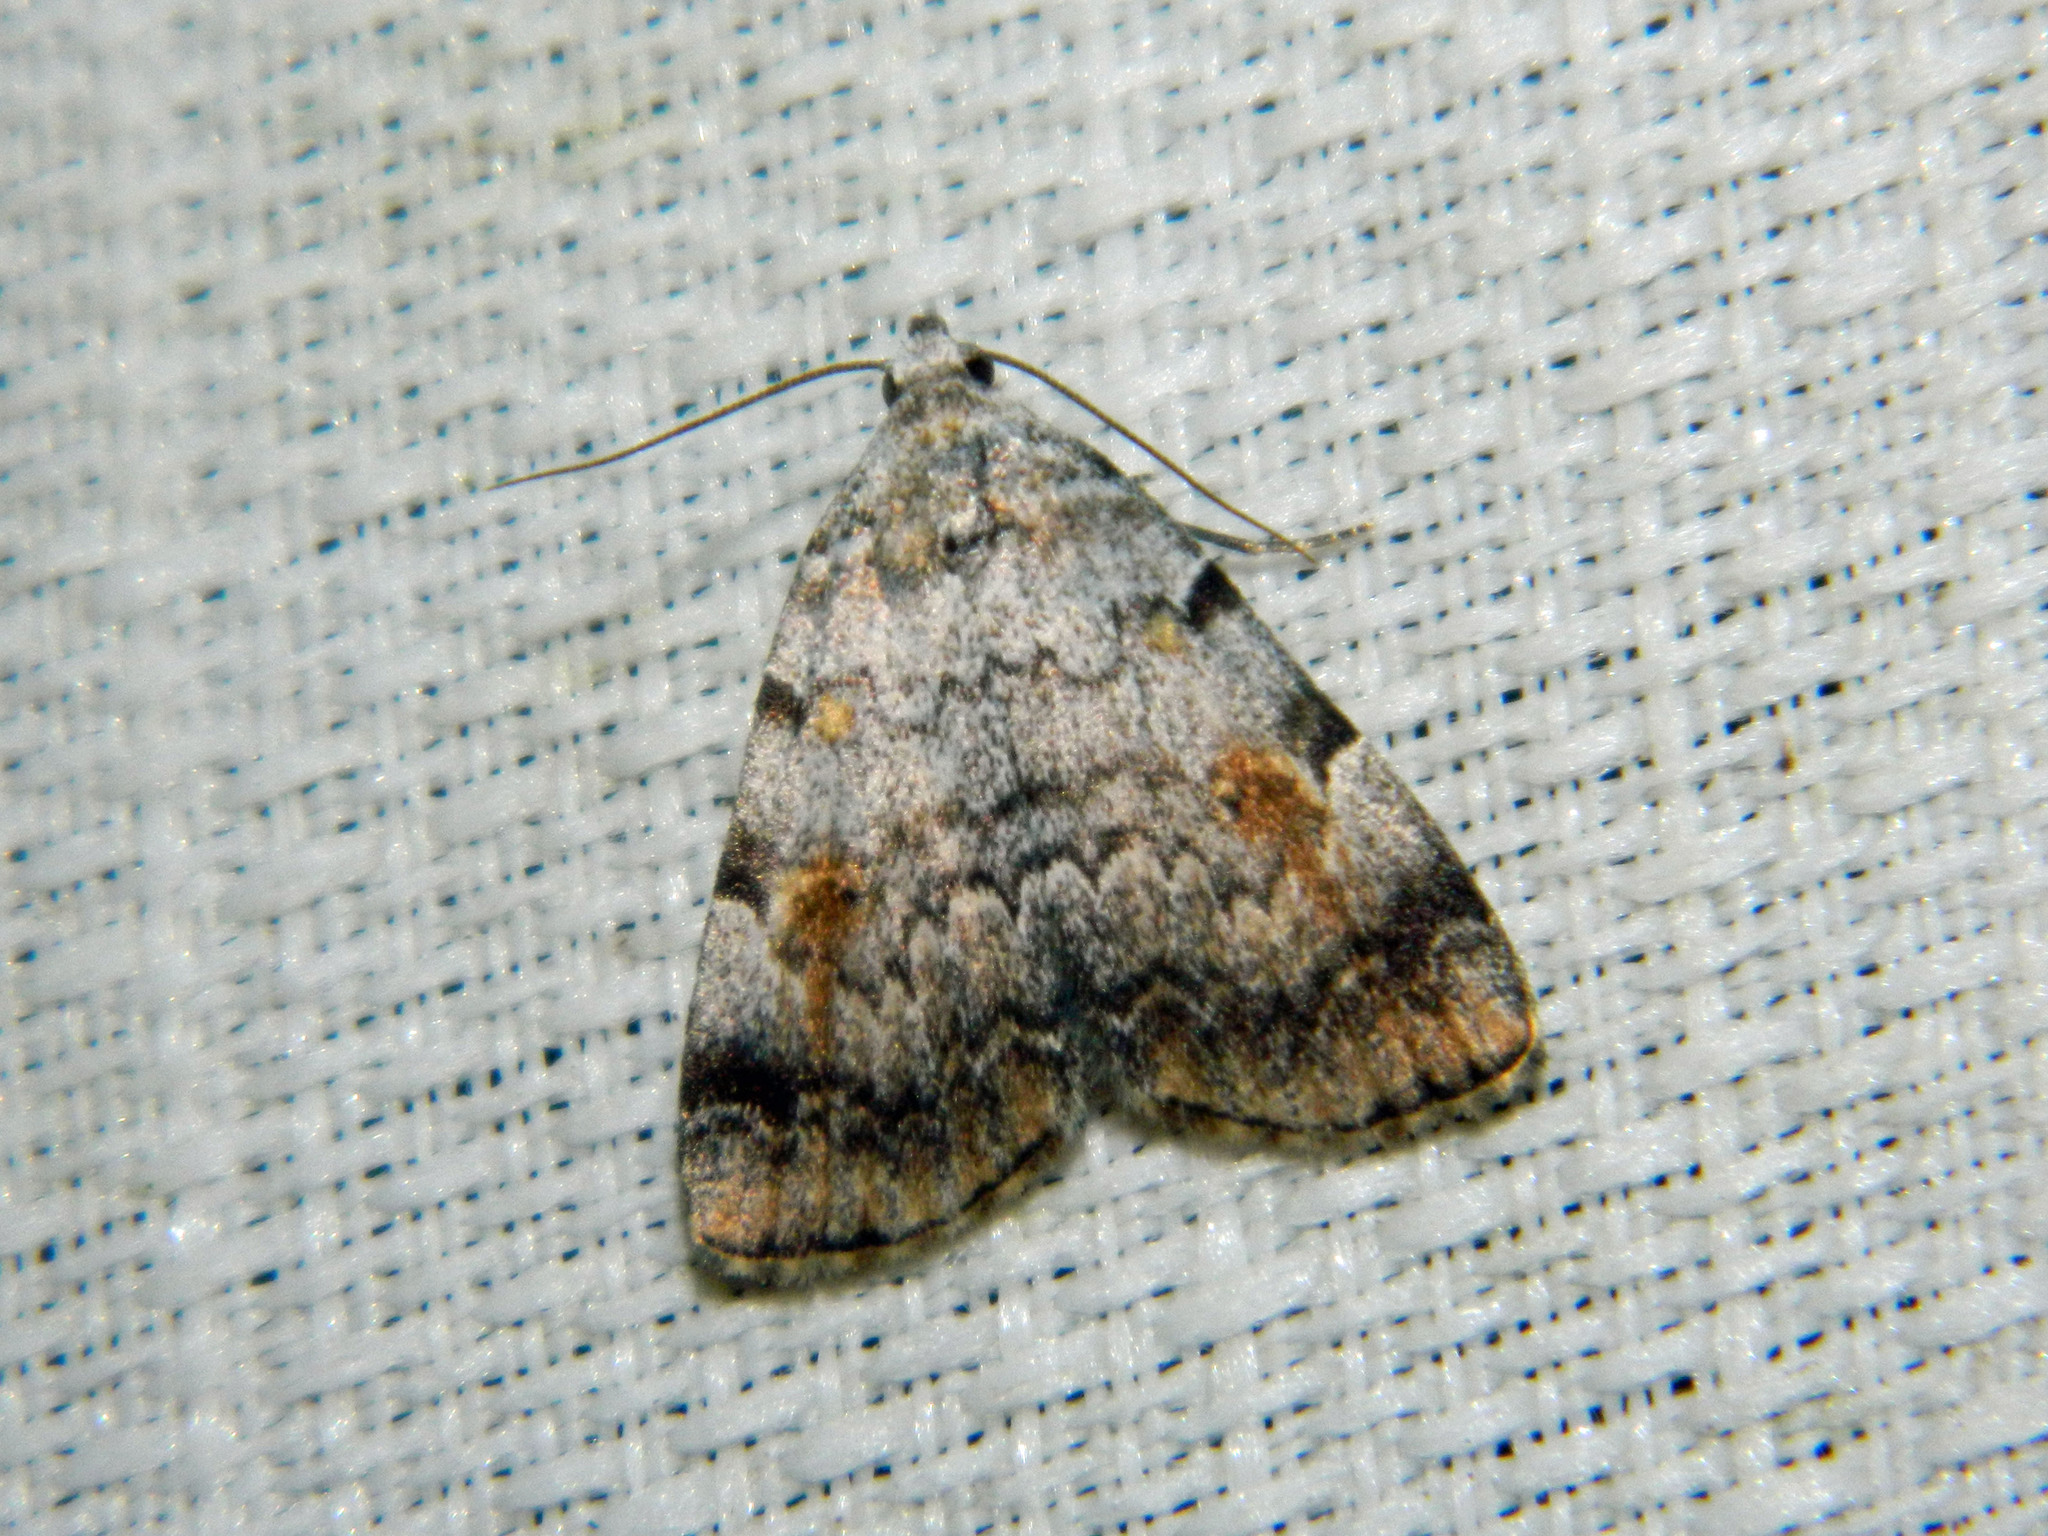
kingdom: Animalia
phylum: Arthropoda
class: Insecta
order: Lepidoptera
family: Erebidae
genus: Idia
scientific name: Idia americalis
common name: American idia moth
